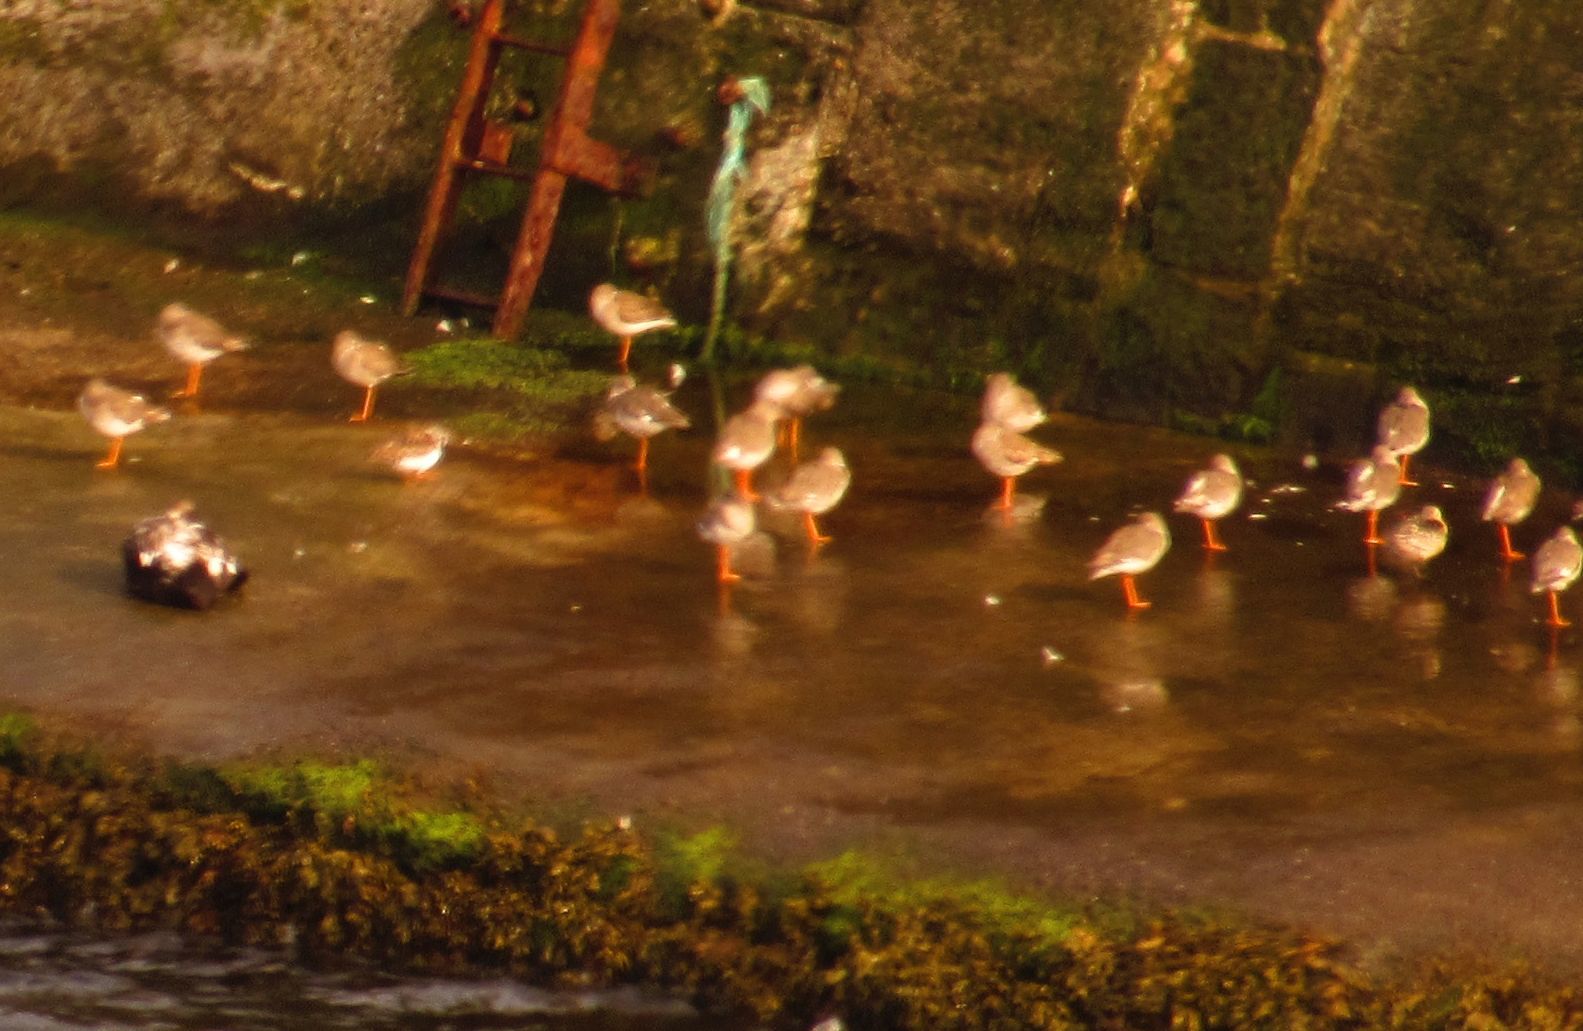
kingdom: Animalia
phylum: Chordata
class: Aves
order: Charadriiformes
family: Scolopacidae
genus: Tringa
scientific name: Tringa totanus
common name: Common redshank
